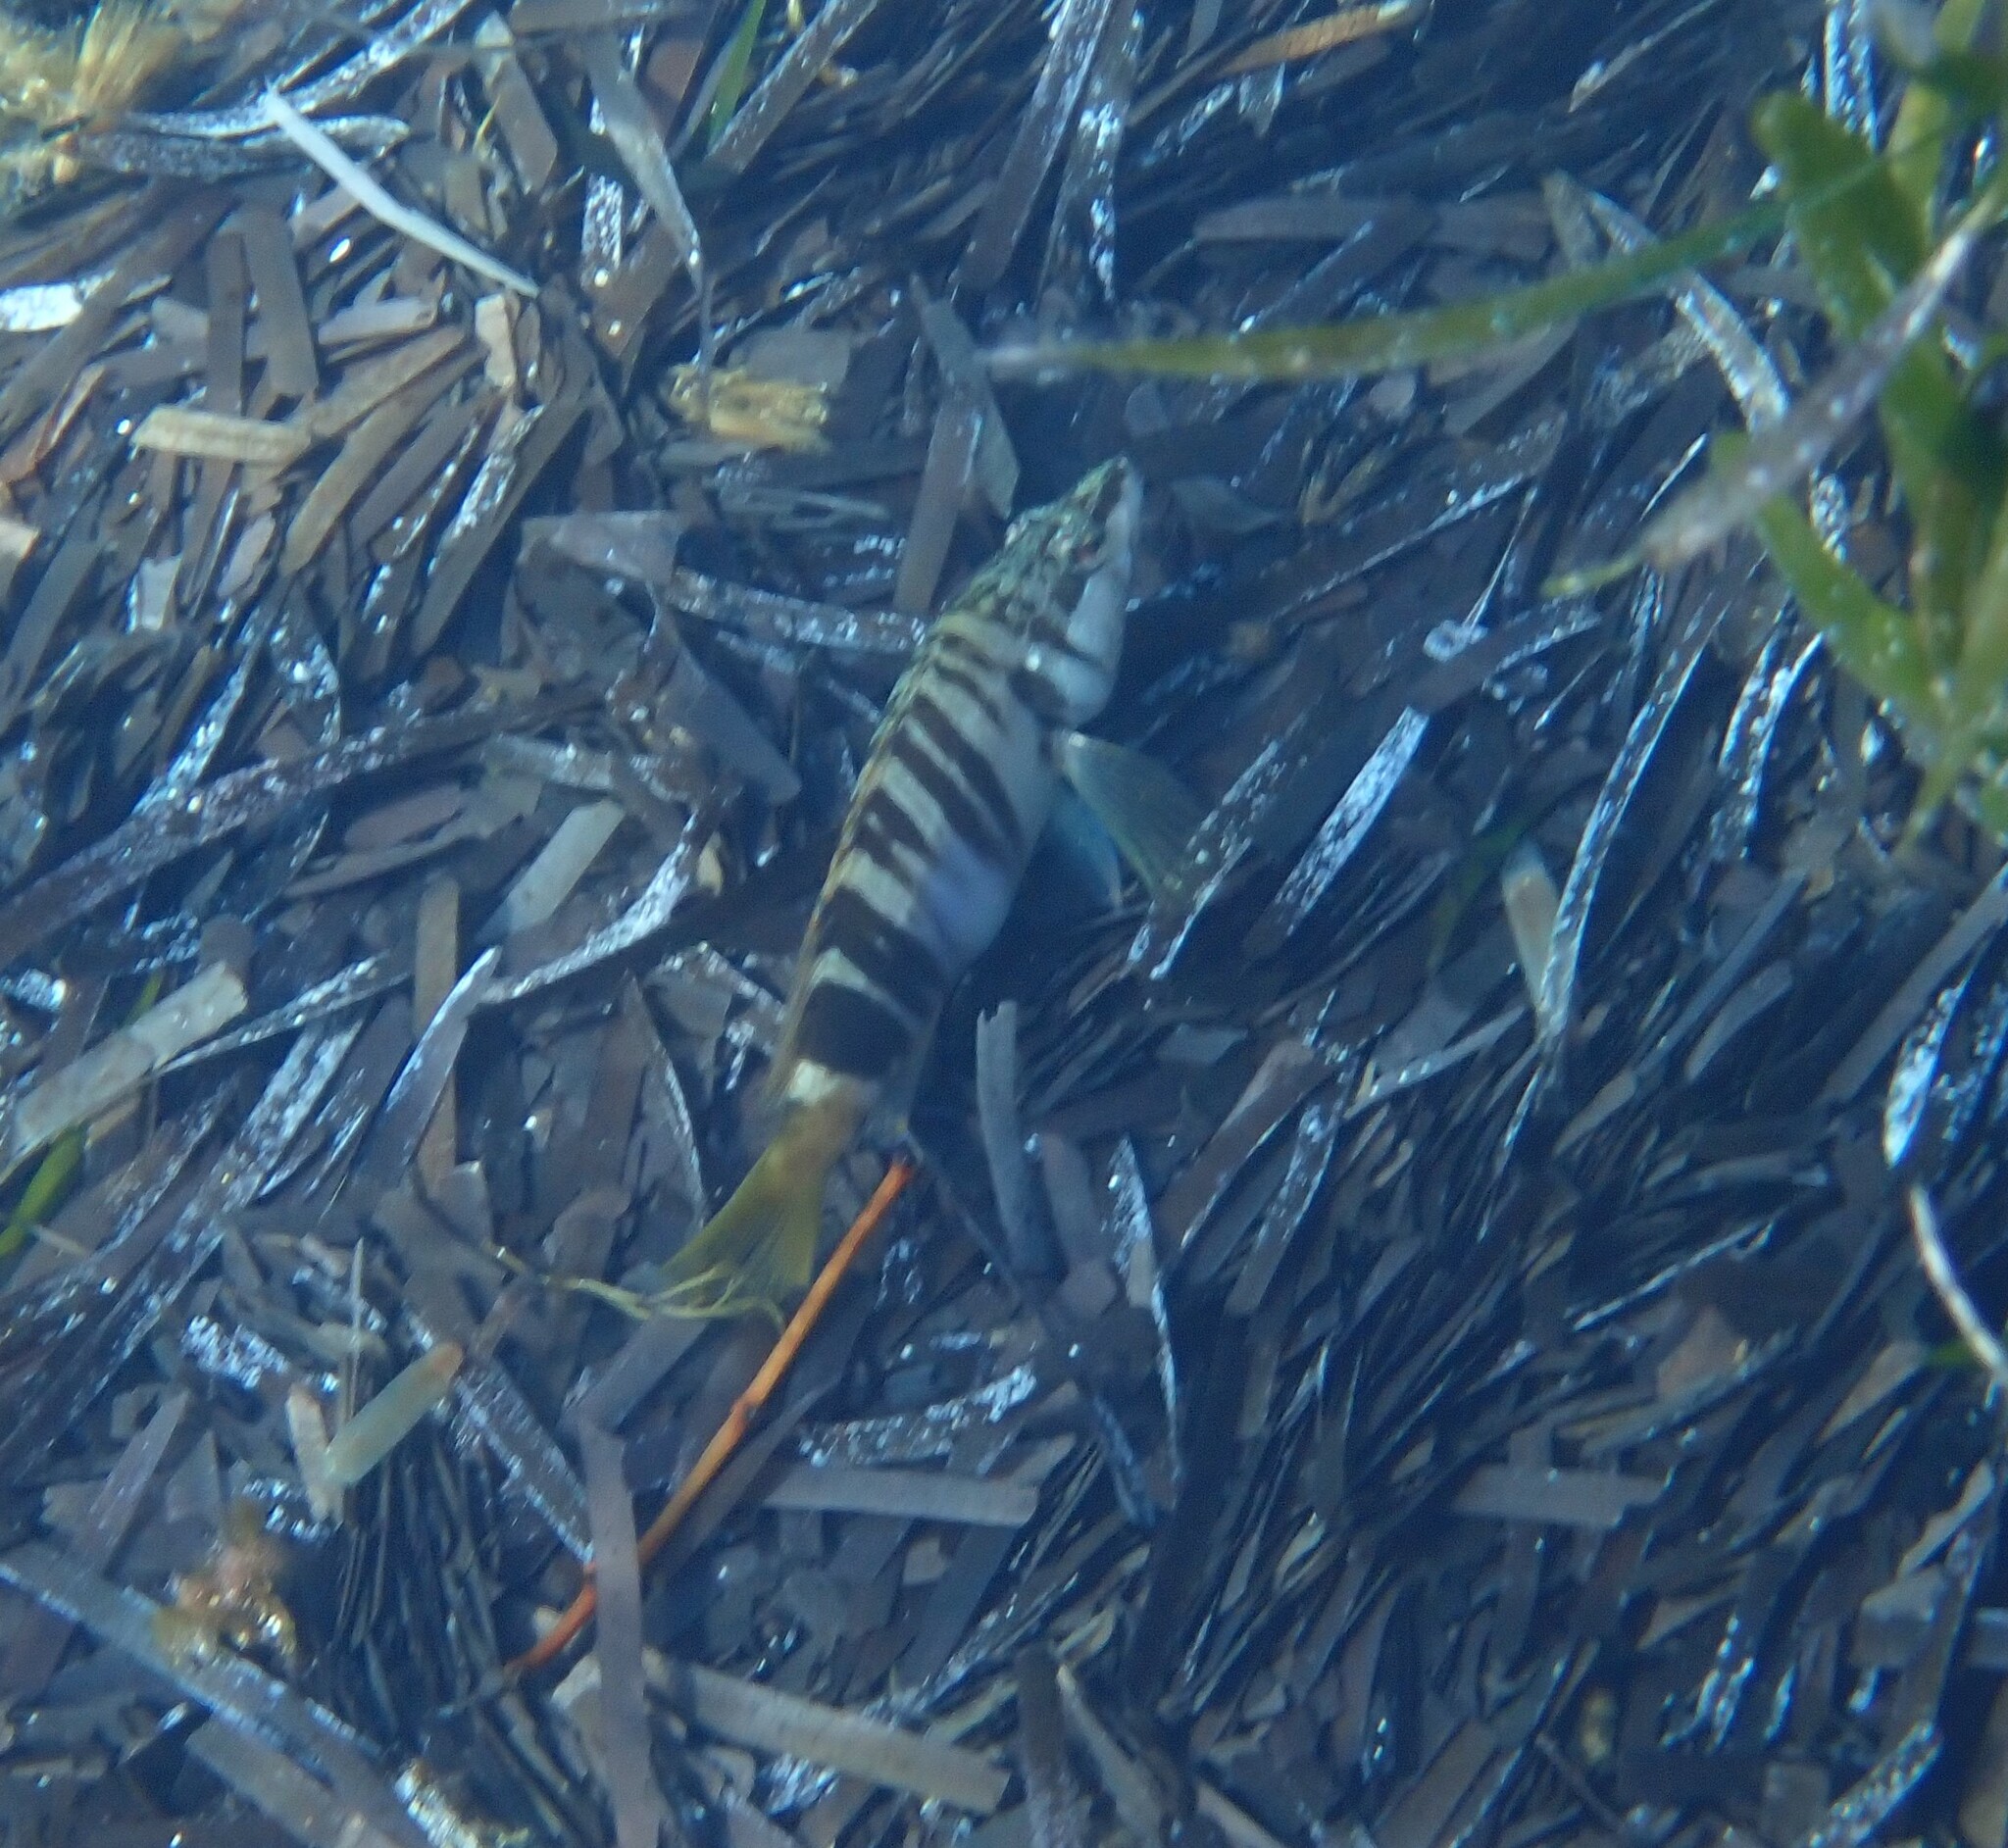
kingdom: Animalia
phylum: Chordata
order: Perciformes
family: Serranidae
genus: Serranus
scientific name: Serranus scriba
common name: Painted comber
